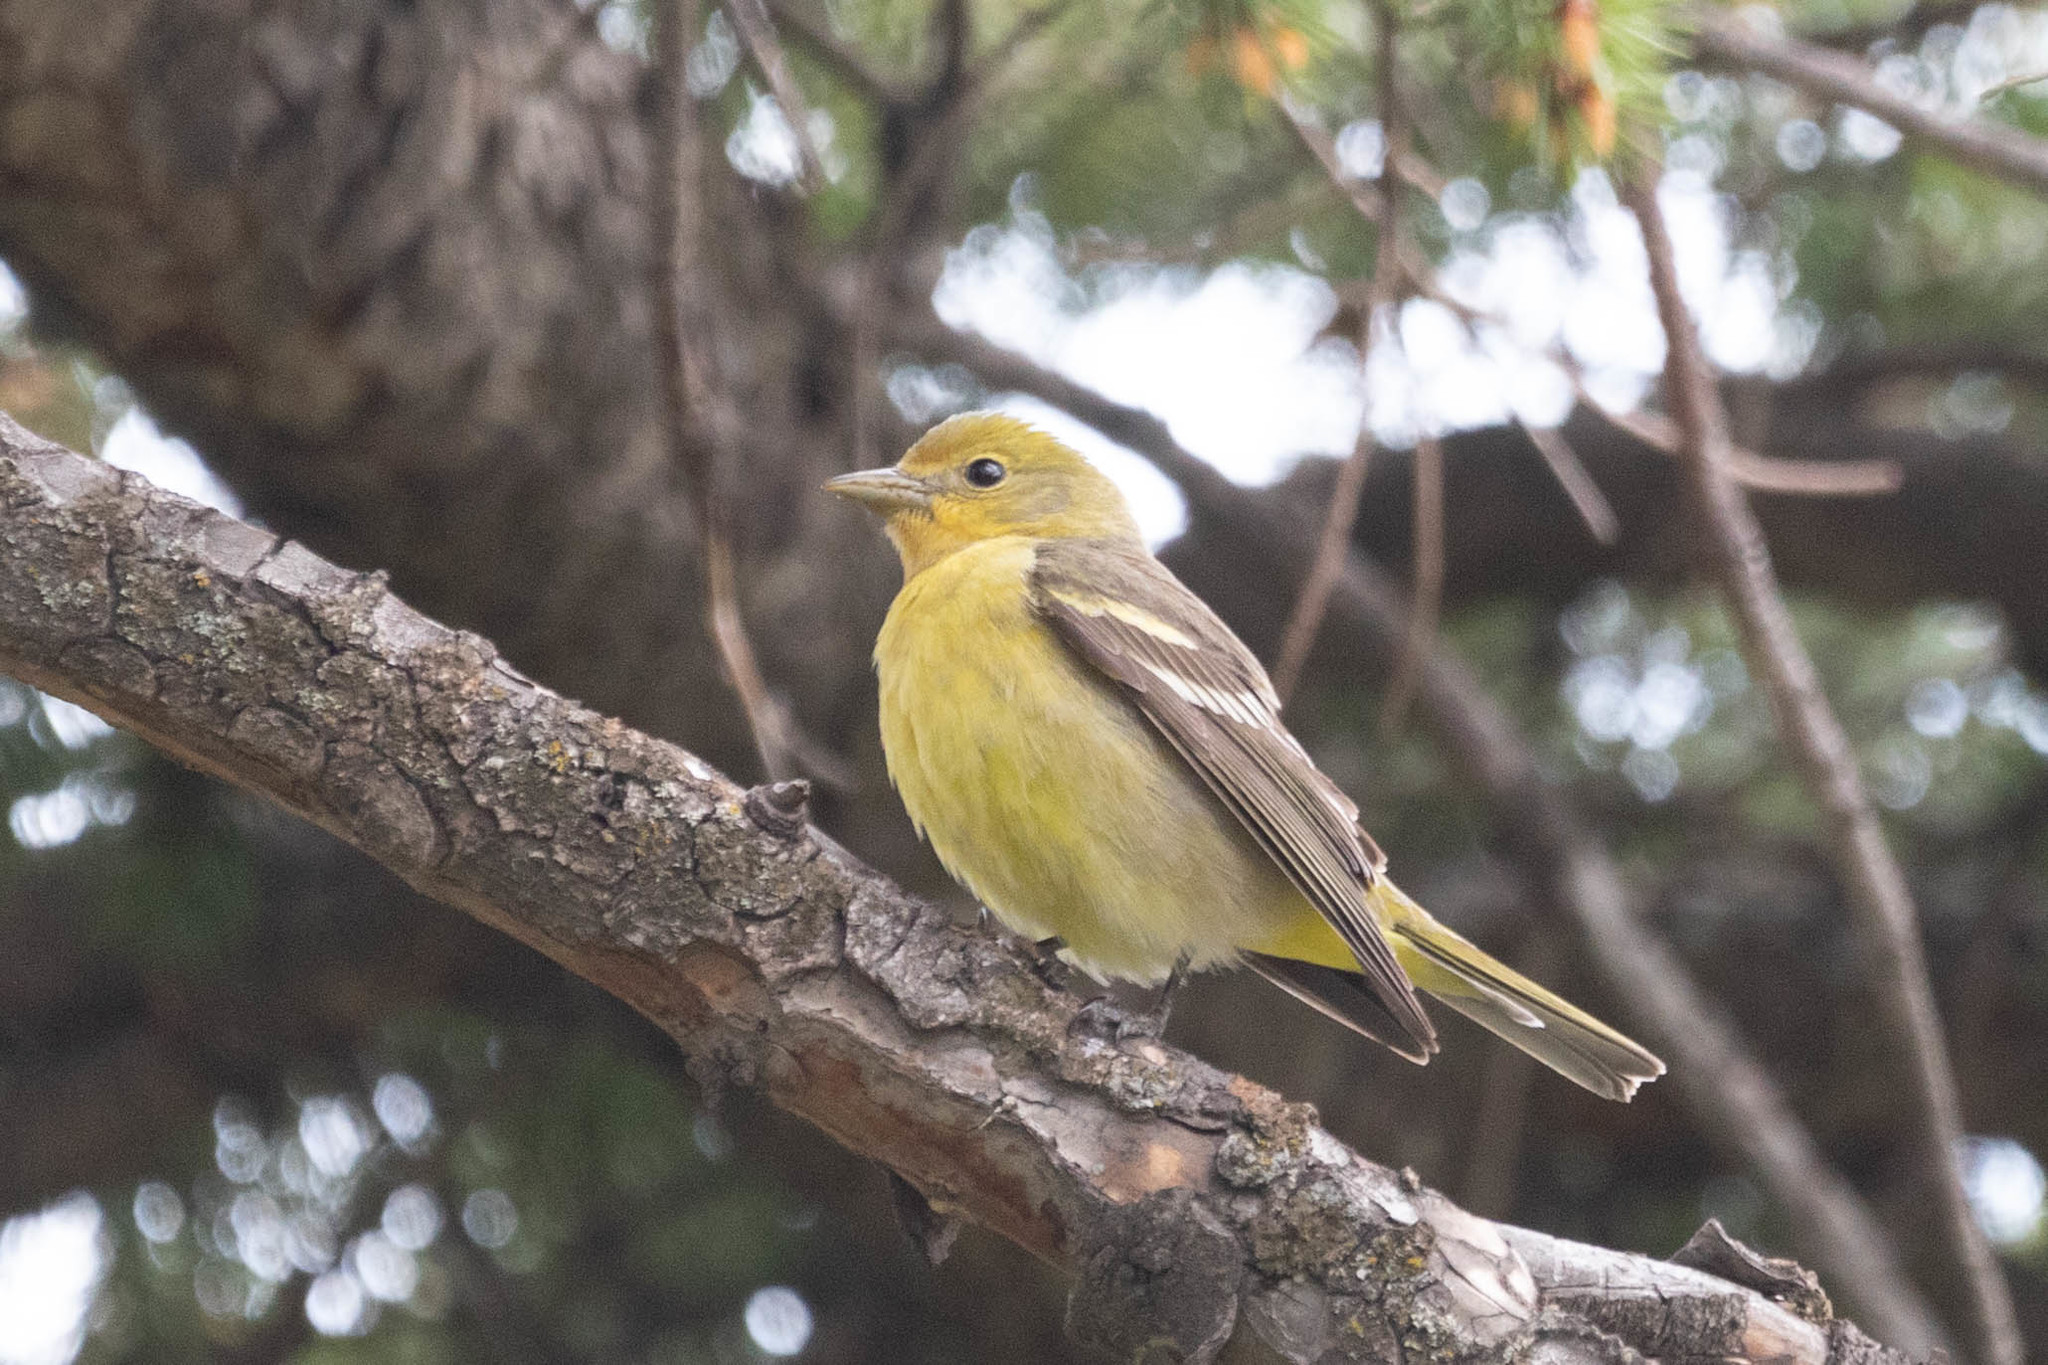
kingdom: Animalia
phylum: Chordata
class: Aves
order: Passeriformes
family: Cardinalidae
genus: Piranga
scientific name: Piranga ludoviciana
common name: Western tanager
